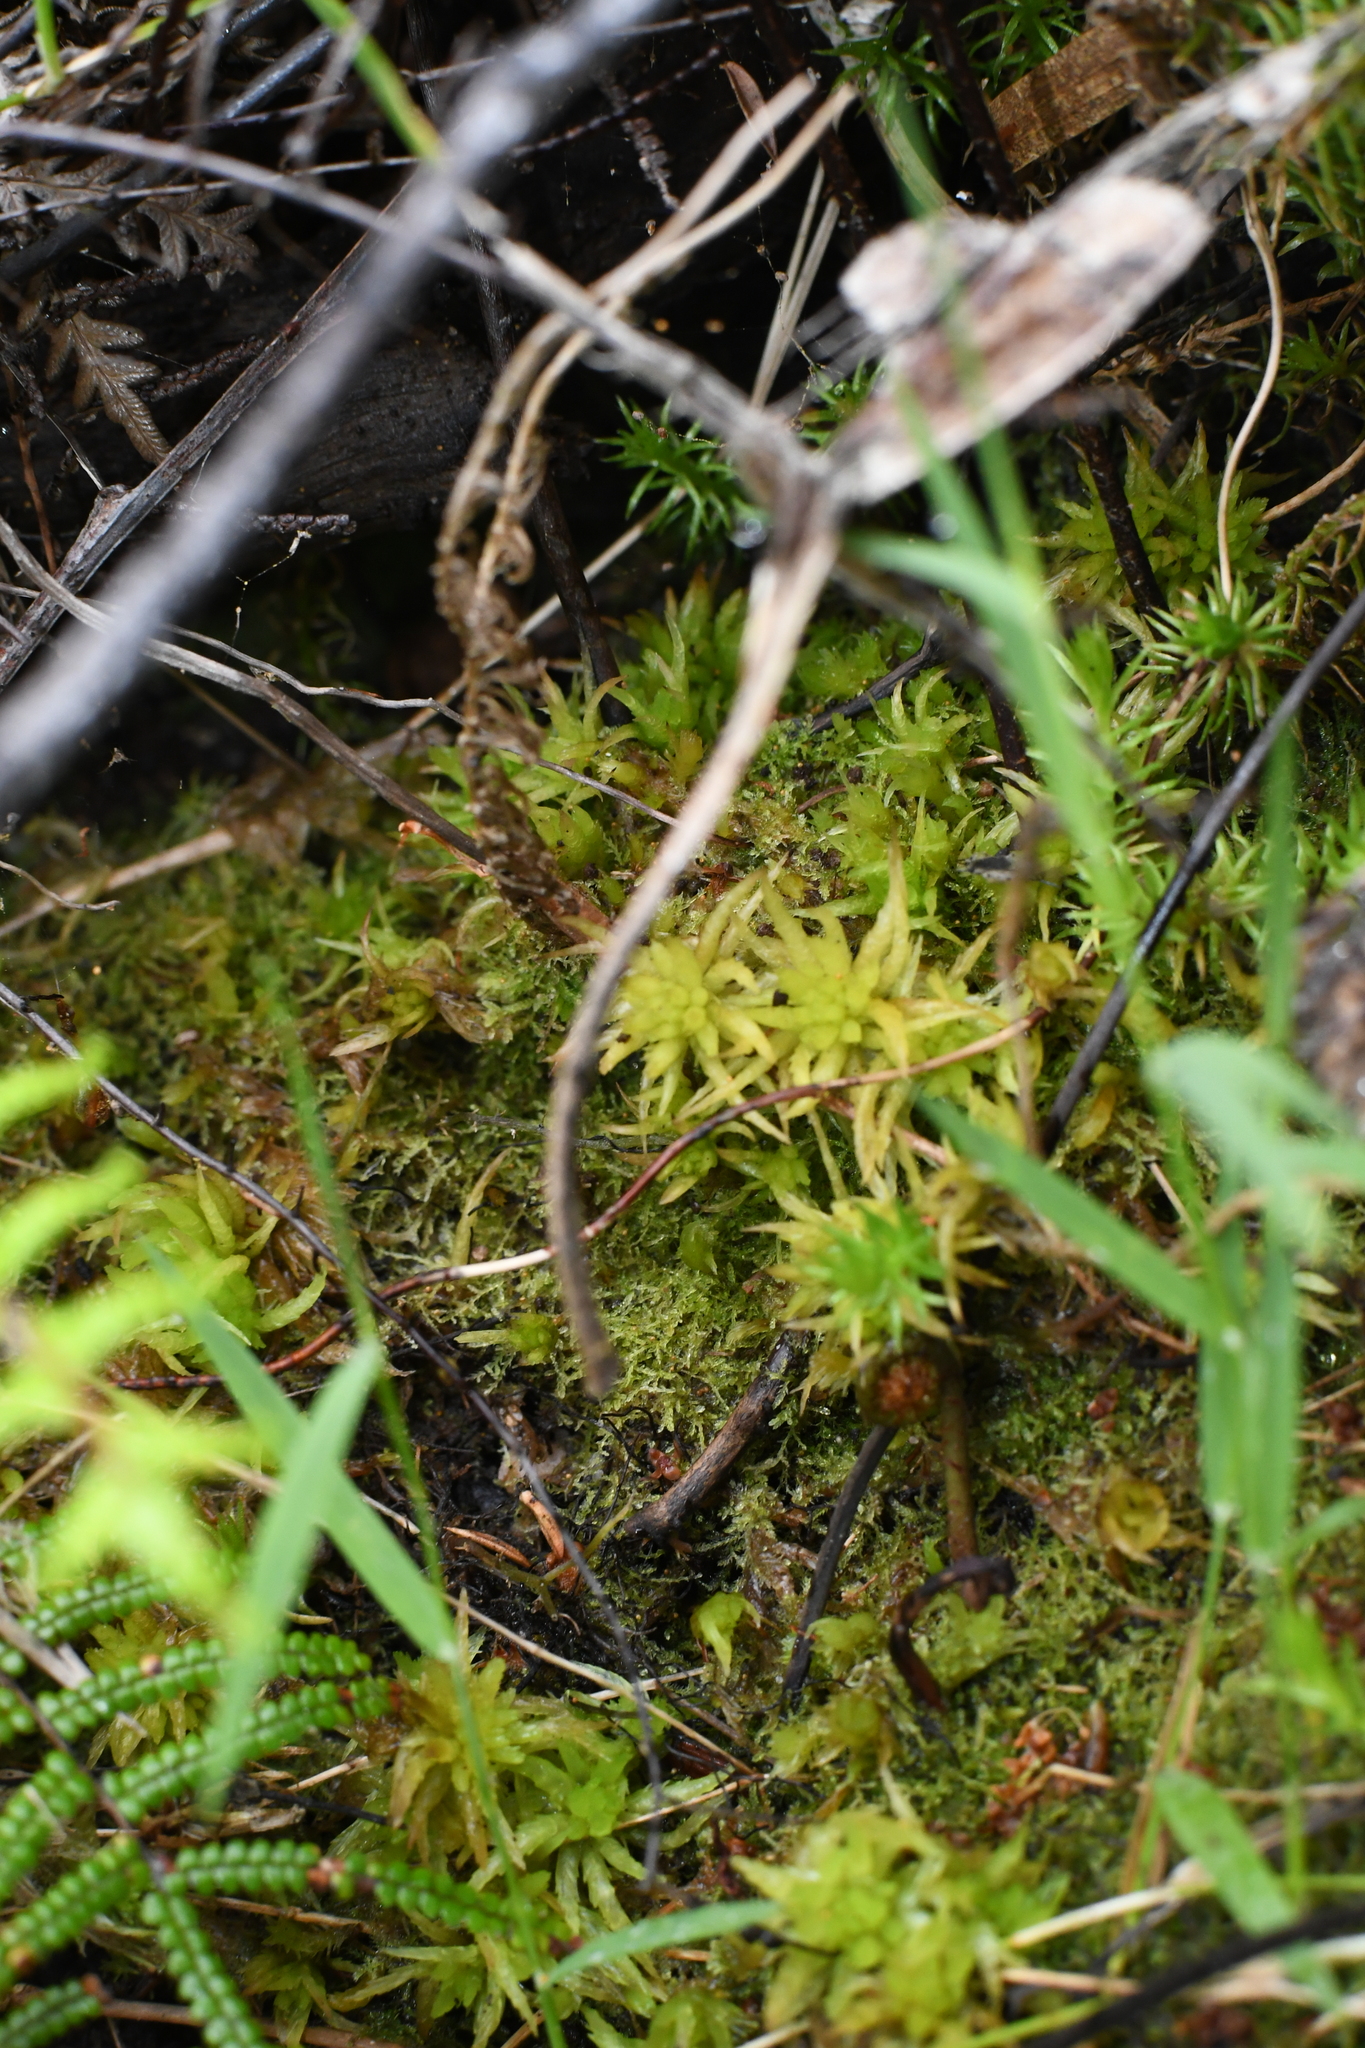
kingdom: Plantae
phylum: Bryophyta
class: Sphagnopsida
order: Sphagnales
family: Sphagnaceae
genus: Sphagnum
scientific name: Sphagnum novozelandicum
